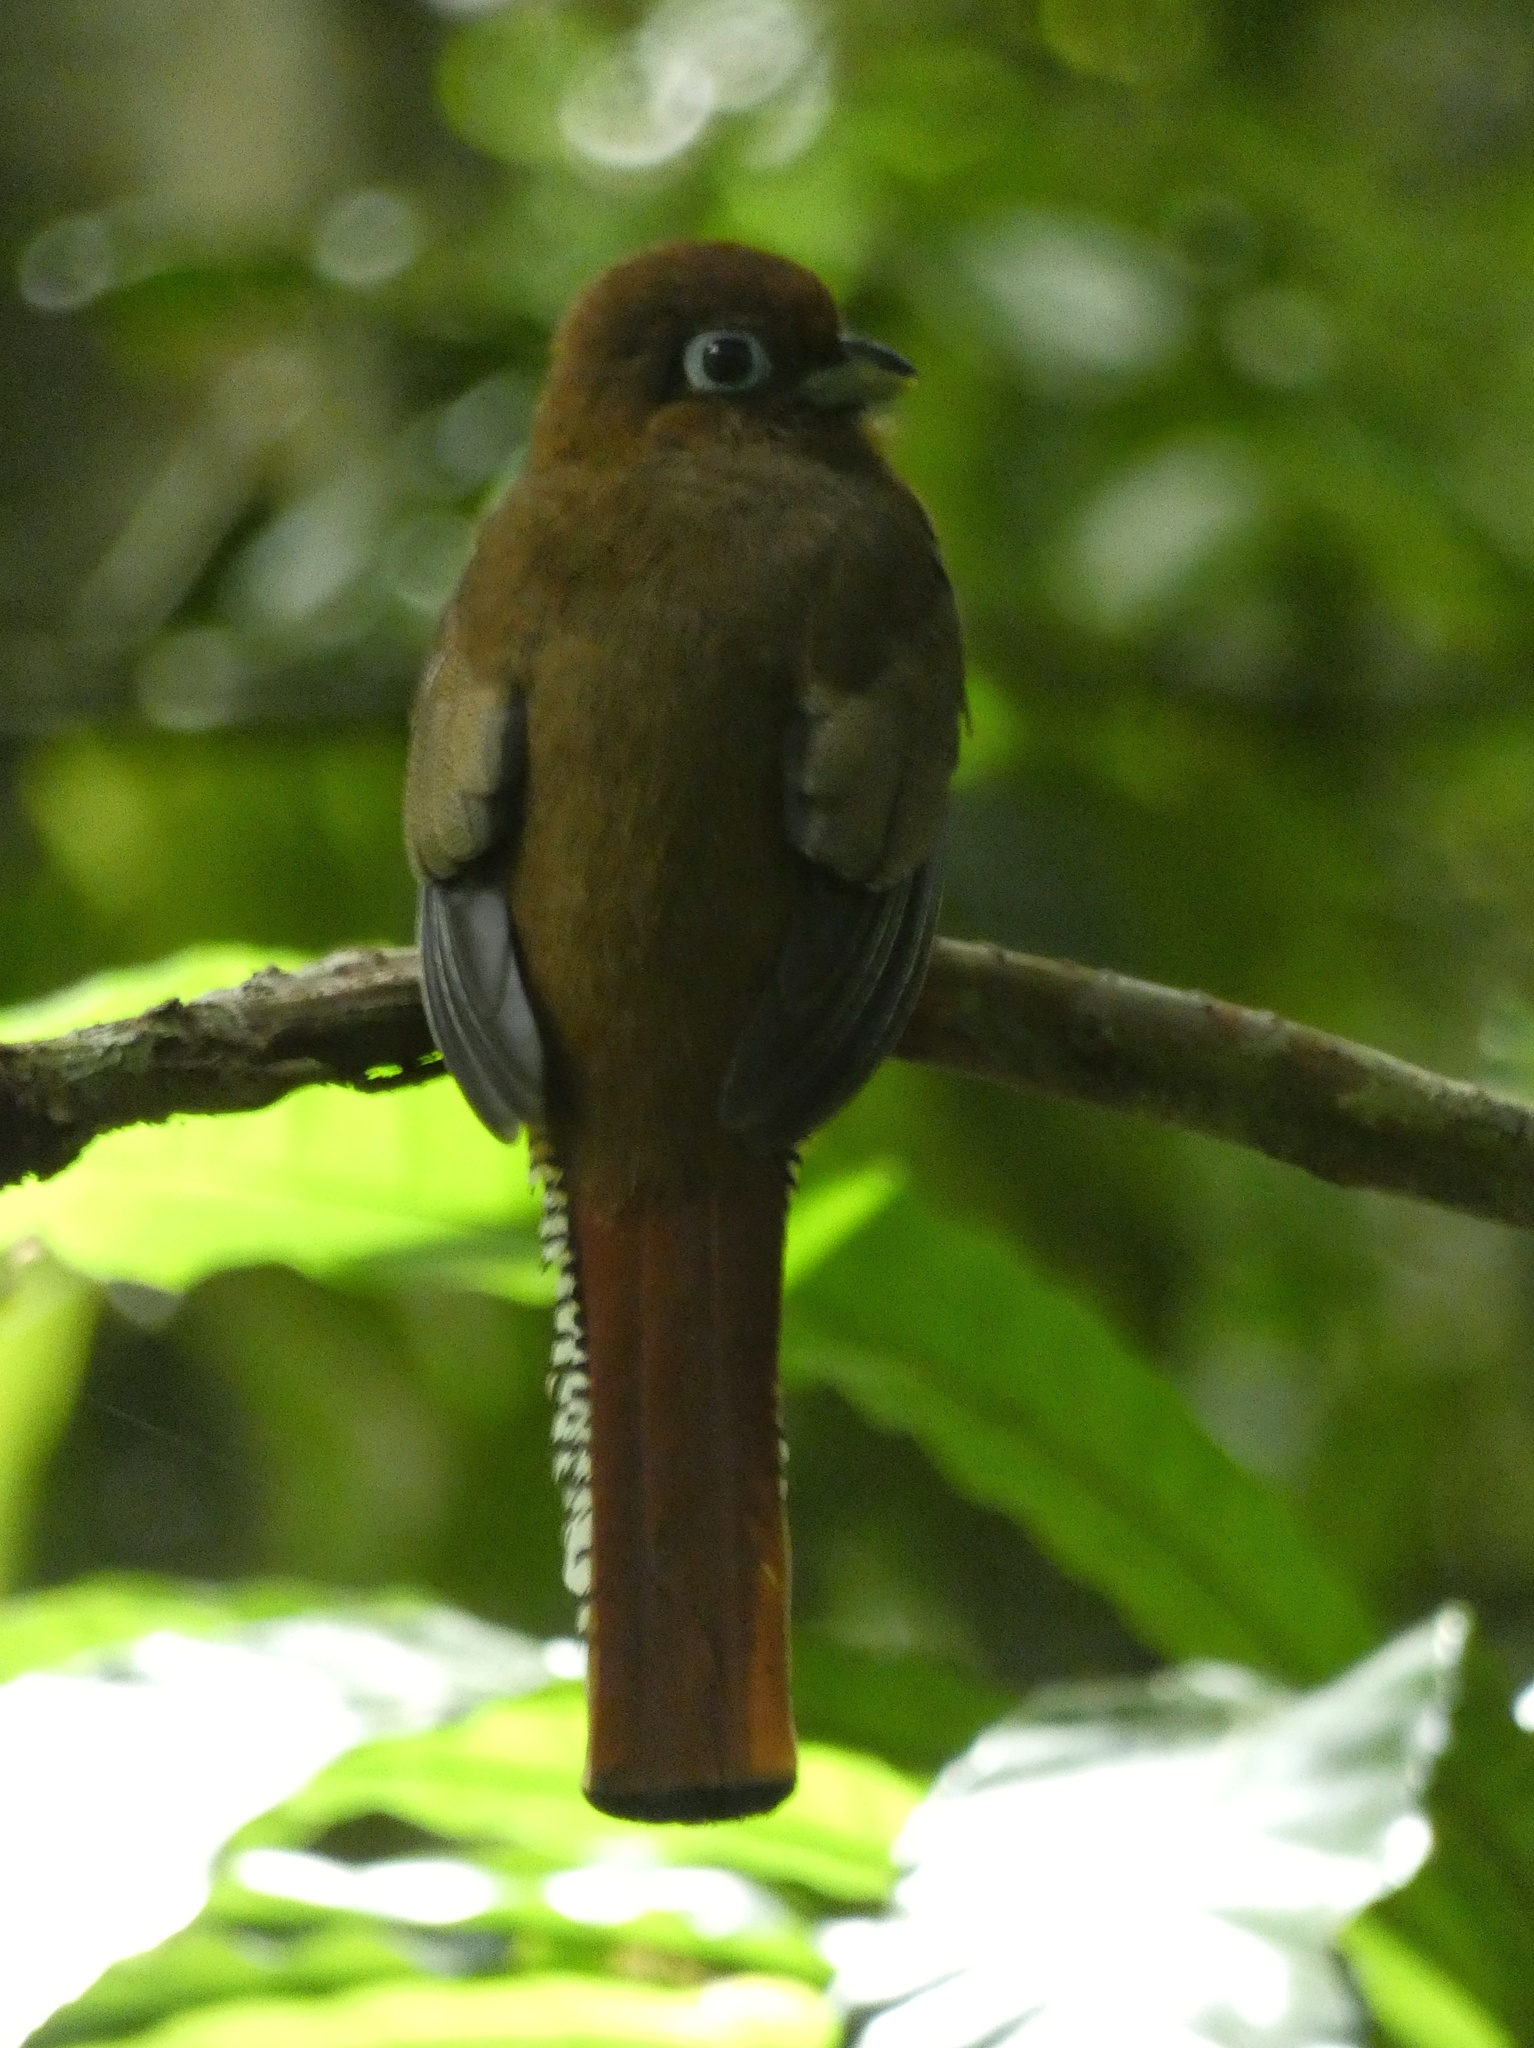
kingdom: Animalia
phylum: Chordata
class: Aves
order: Trogoniformes
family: Trogonidae
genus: Trogon
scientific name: Trogon rufus
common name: Black-throated trogon
